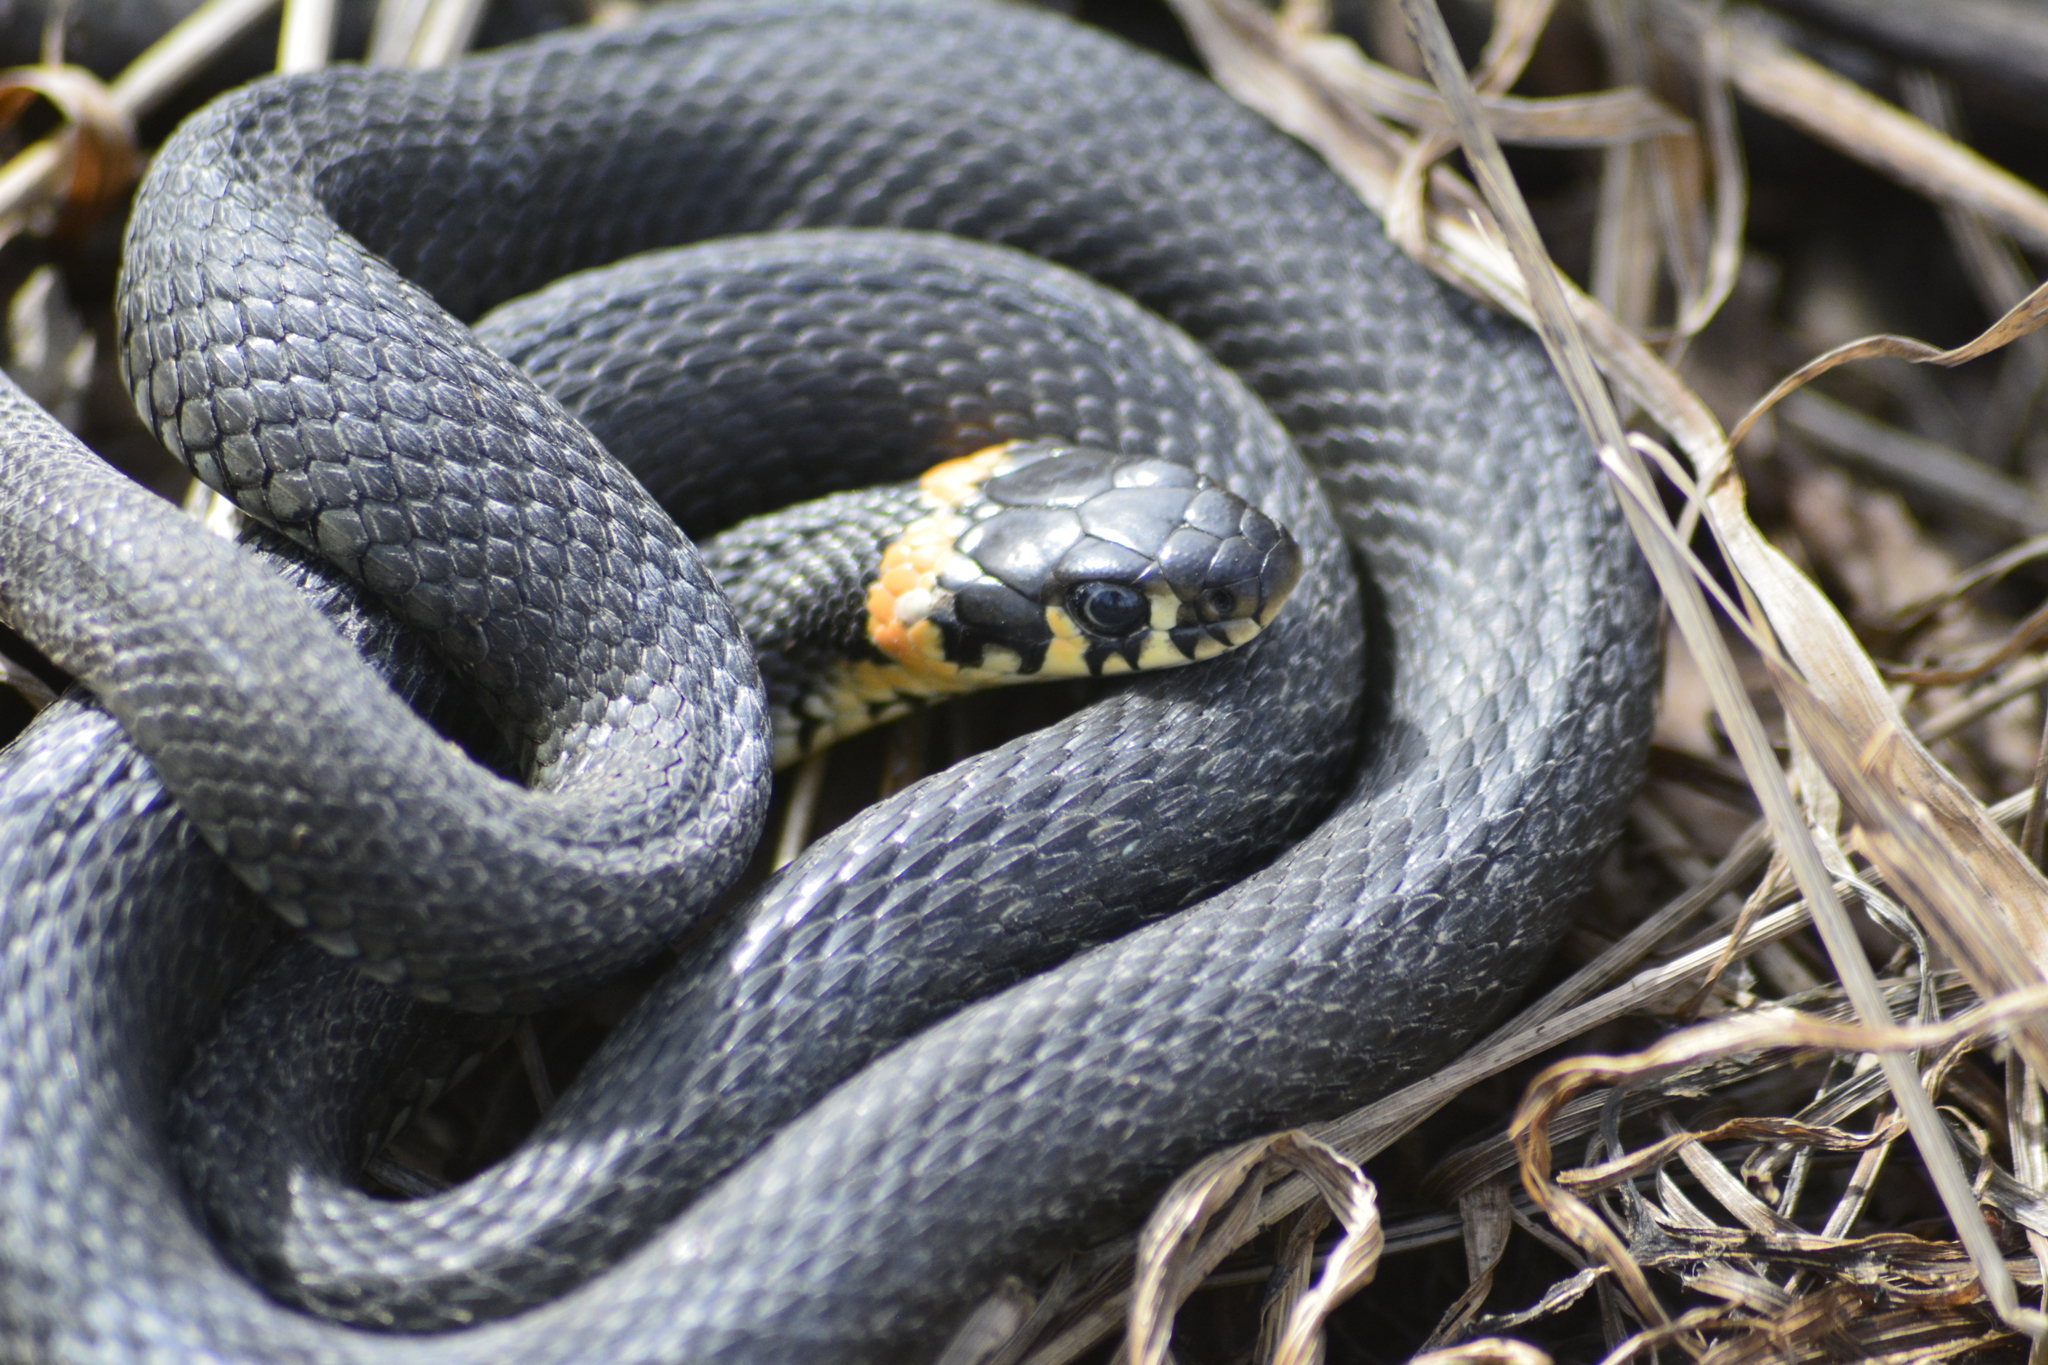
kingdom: Animalia
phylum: Chordata
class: Squamata
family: Colubridae
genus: Natrix
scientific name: Natrix natrix
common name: Grass snake
